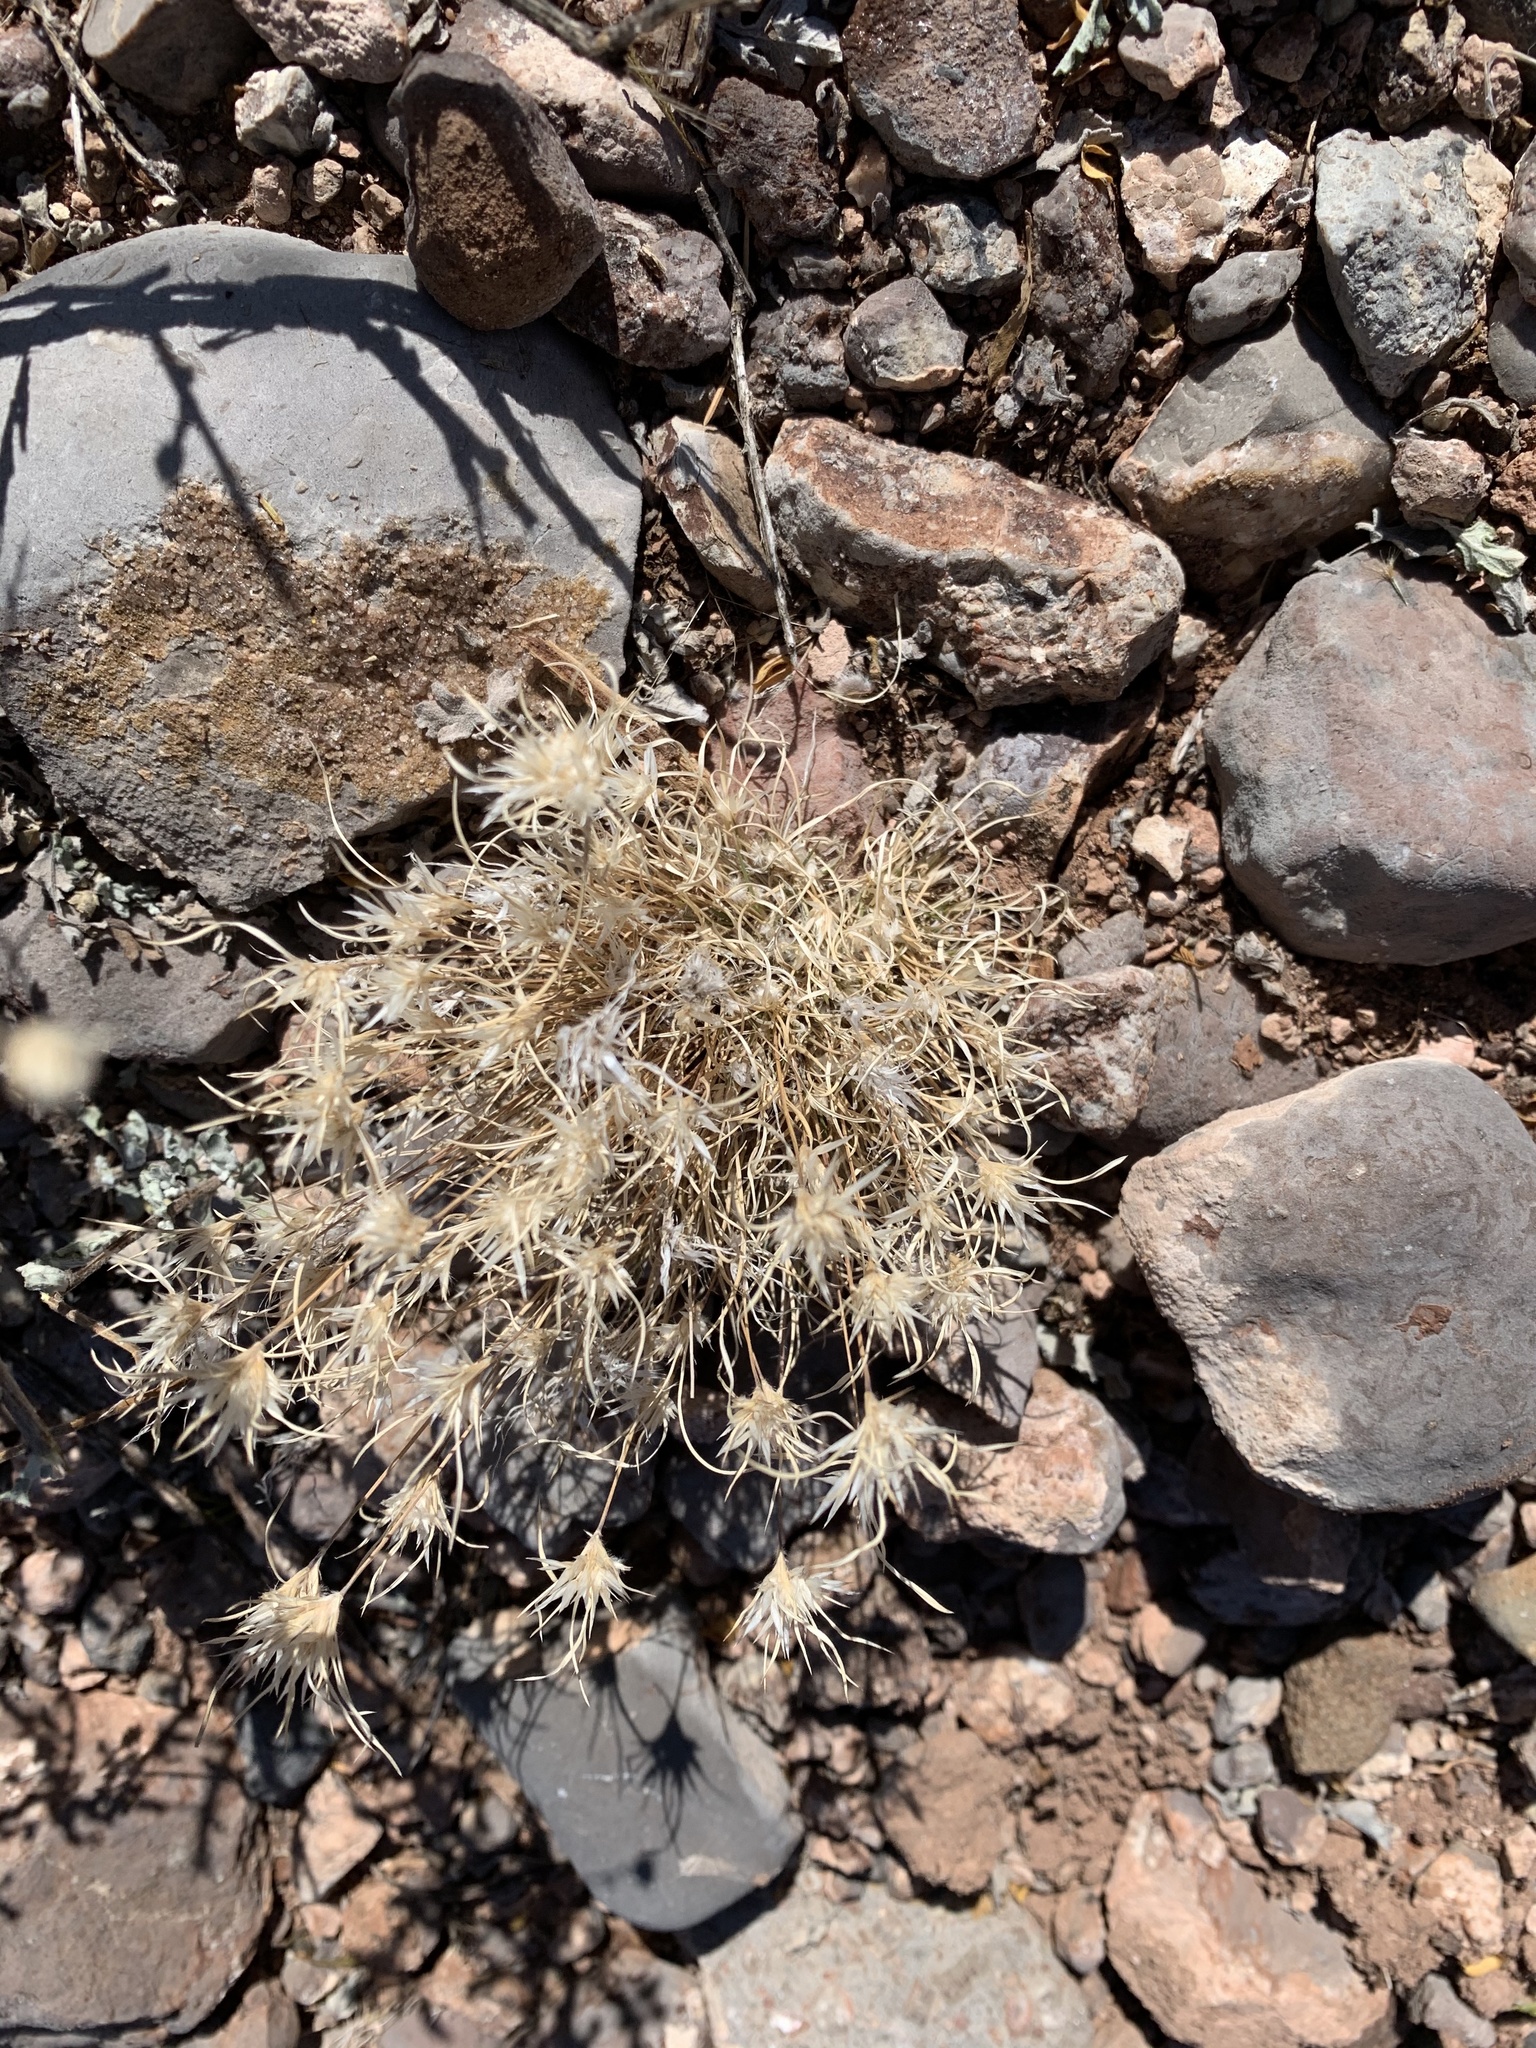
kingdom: Plantae
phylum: Tracheophyta
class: Liliopsida
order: Poales
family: Poaceae
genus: Dasyochloa
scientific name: Dasyochloa pulchella
